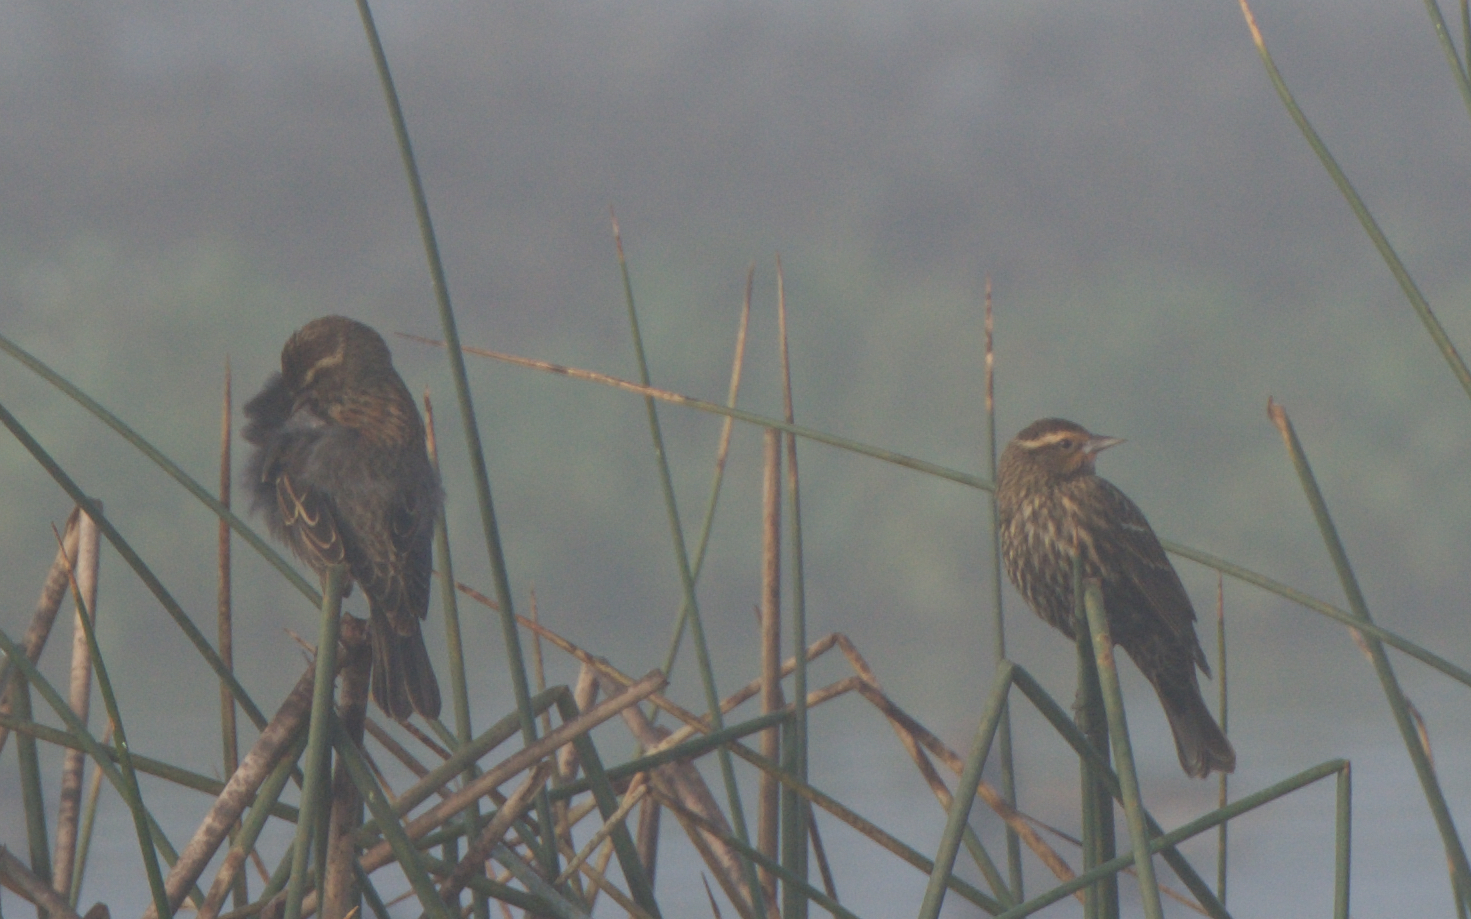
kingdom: Animalia
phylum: Chordata
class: Aves
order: Passeriformes
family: Icteridae
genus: Agelaius
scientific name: Agelaius phoeniceus
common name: Red-winged blackbird
